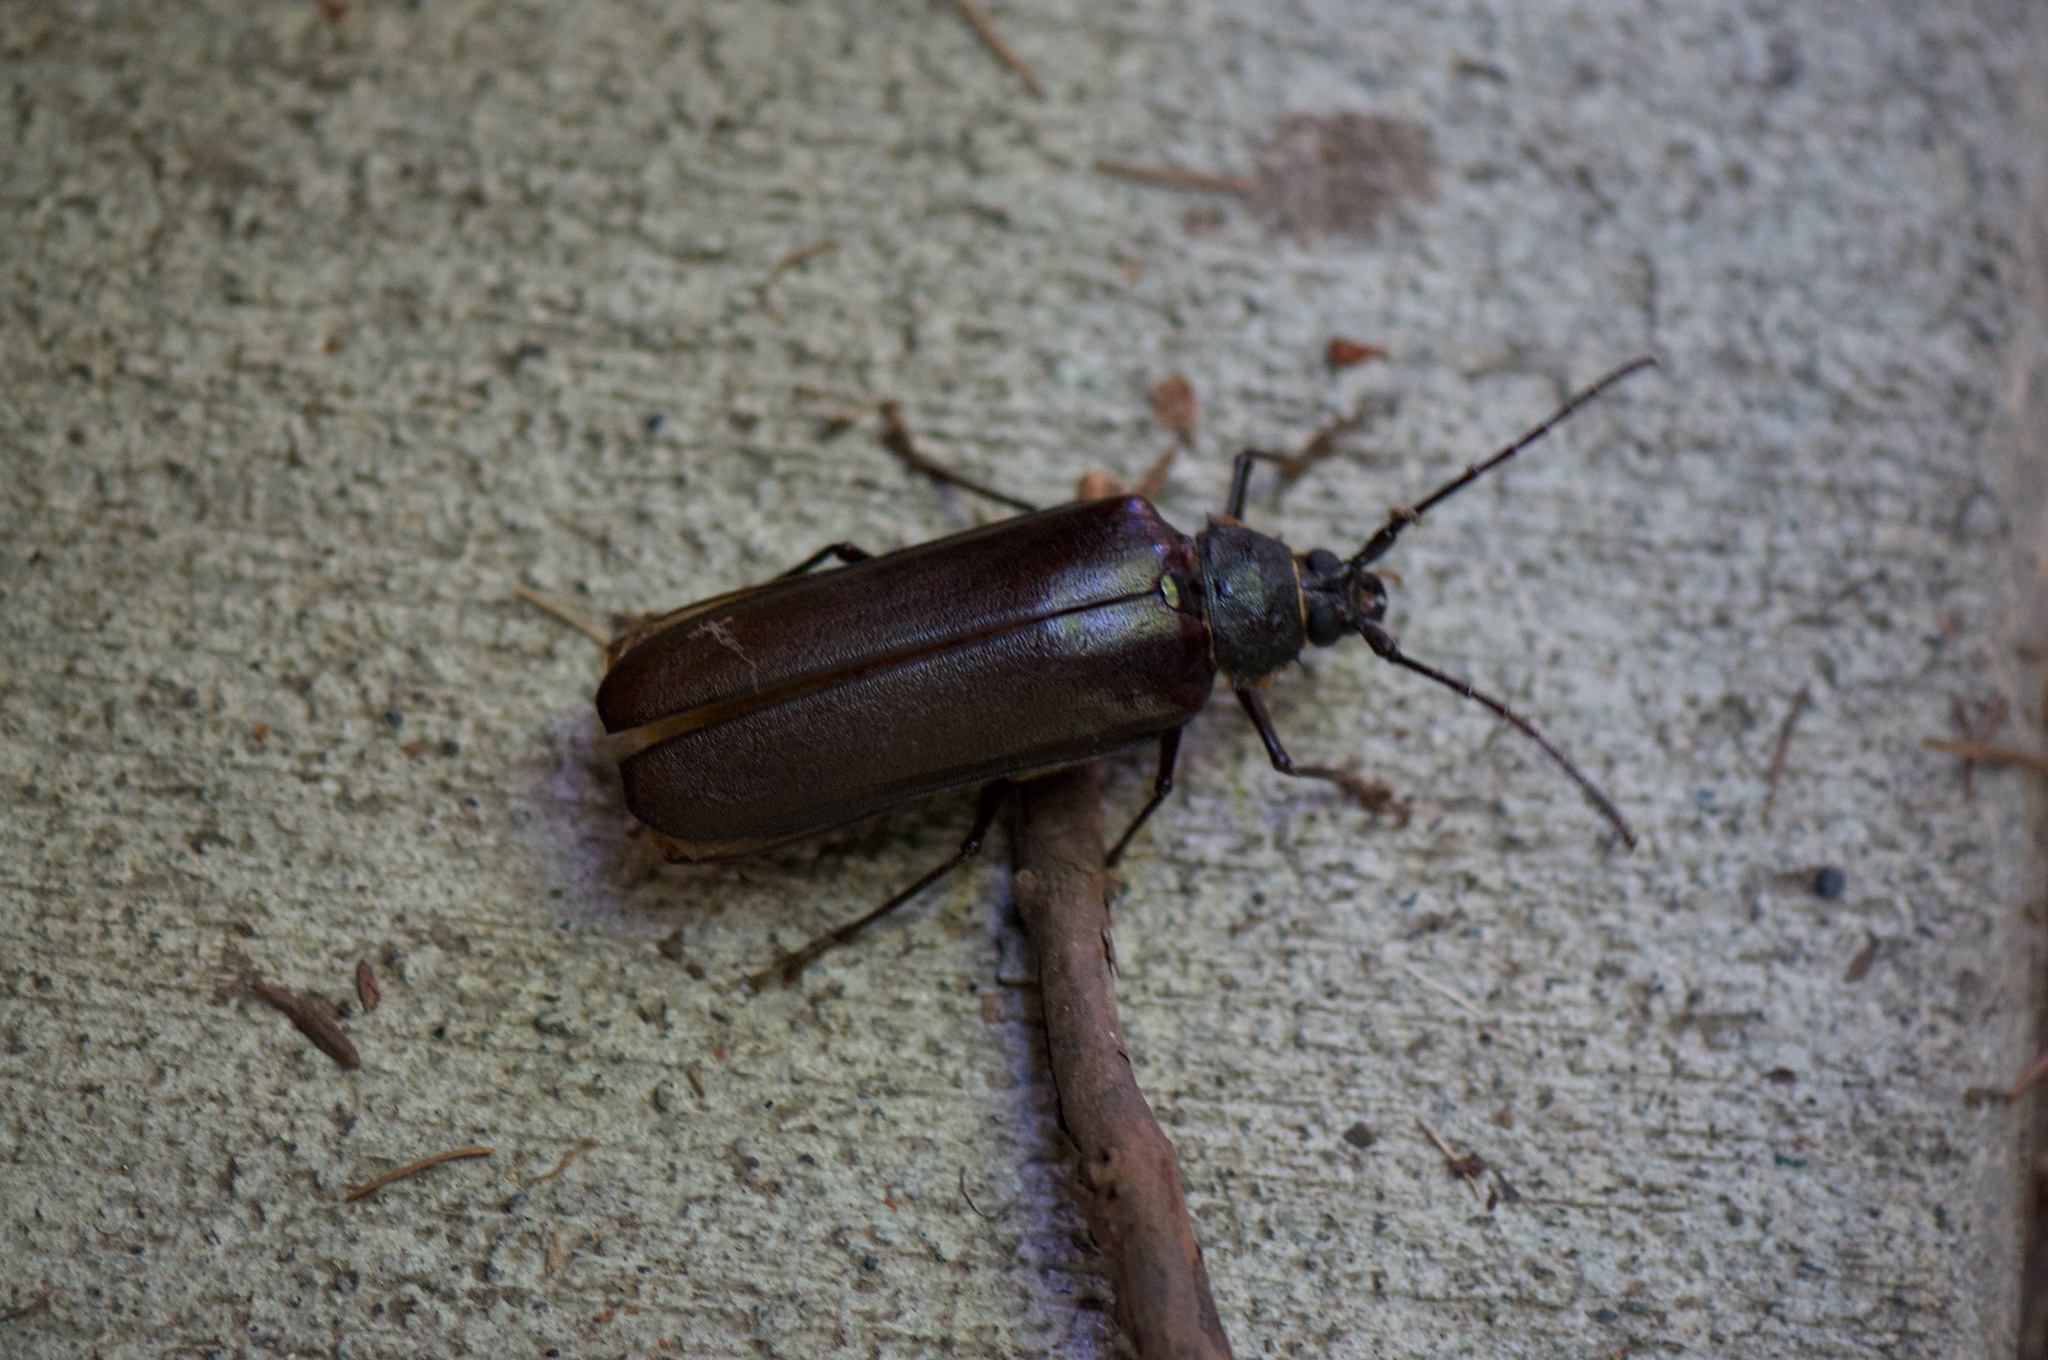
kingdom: Animalia
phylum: Arthropoda
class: Insecta
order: Coleoptera
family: Cerambycidae
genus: Trichocnemis
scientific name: Trichocnemis spiculatus
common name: Long-horned beetle
